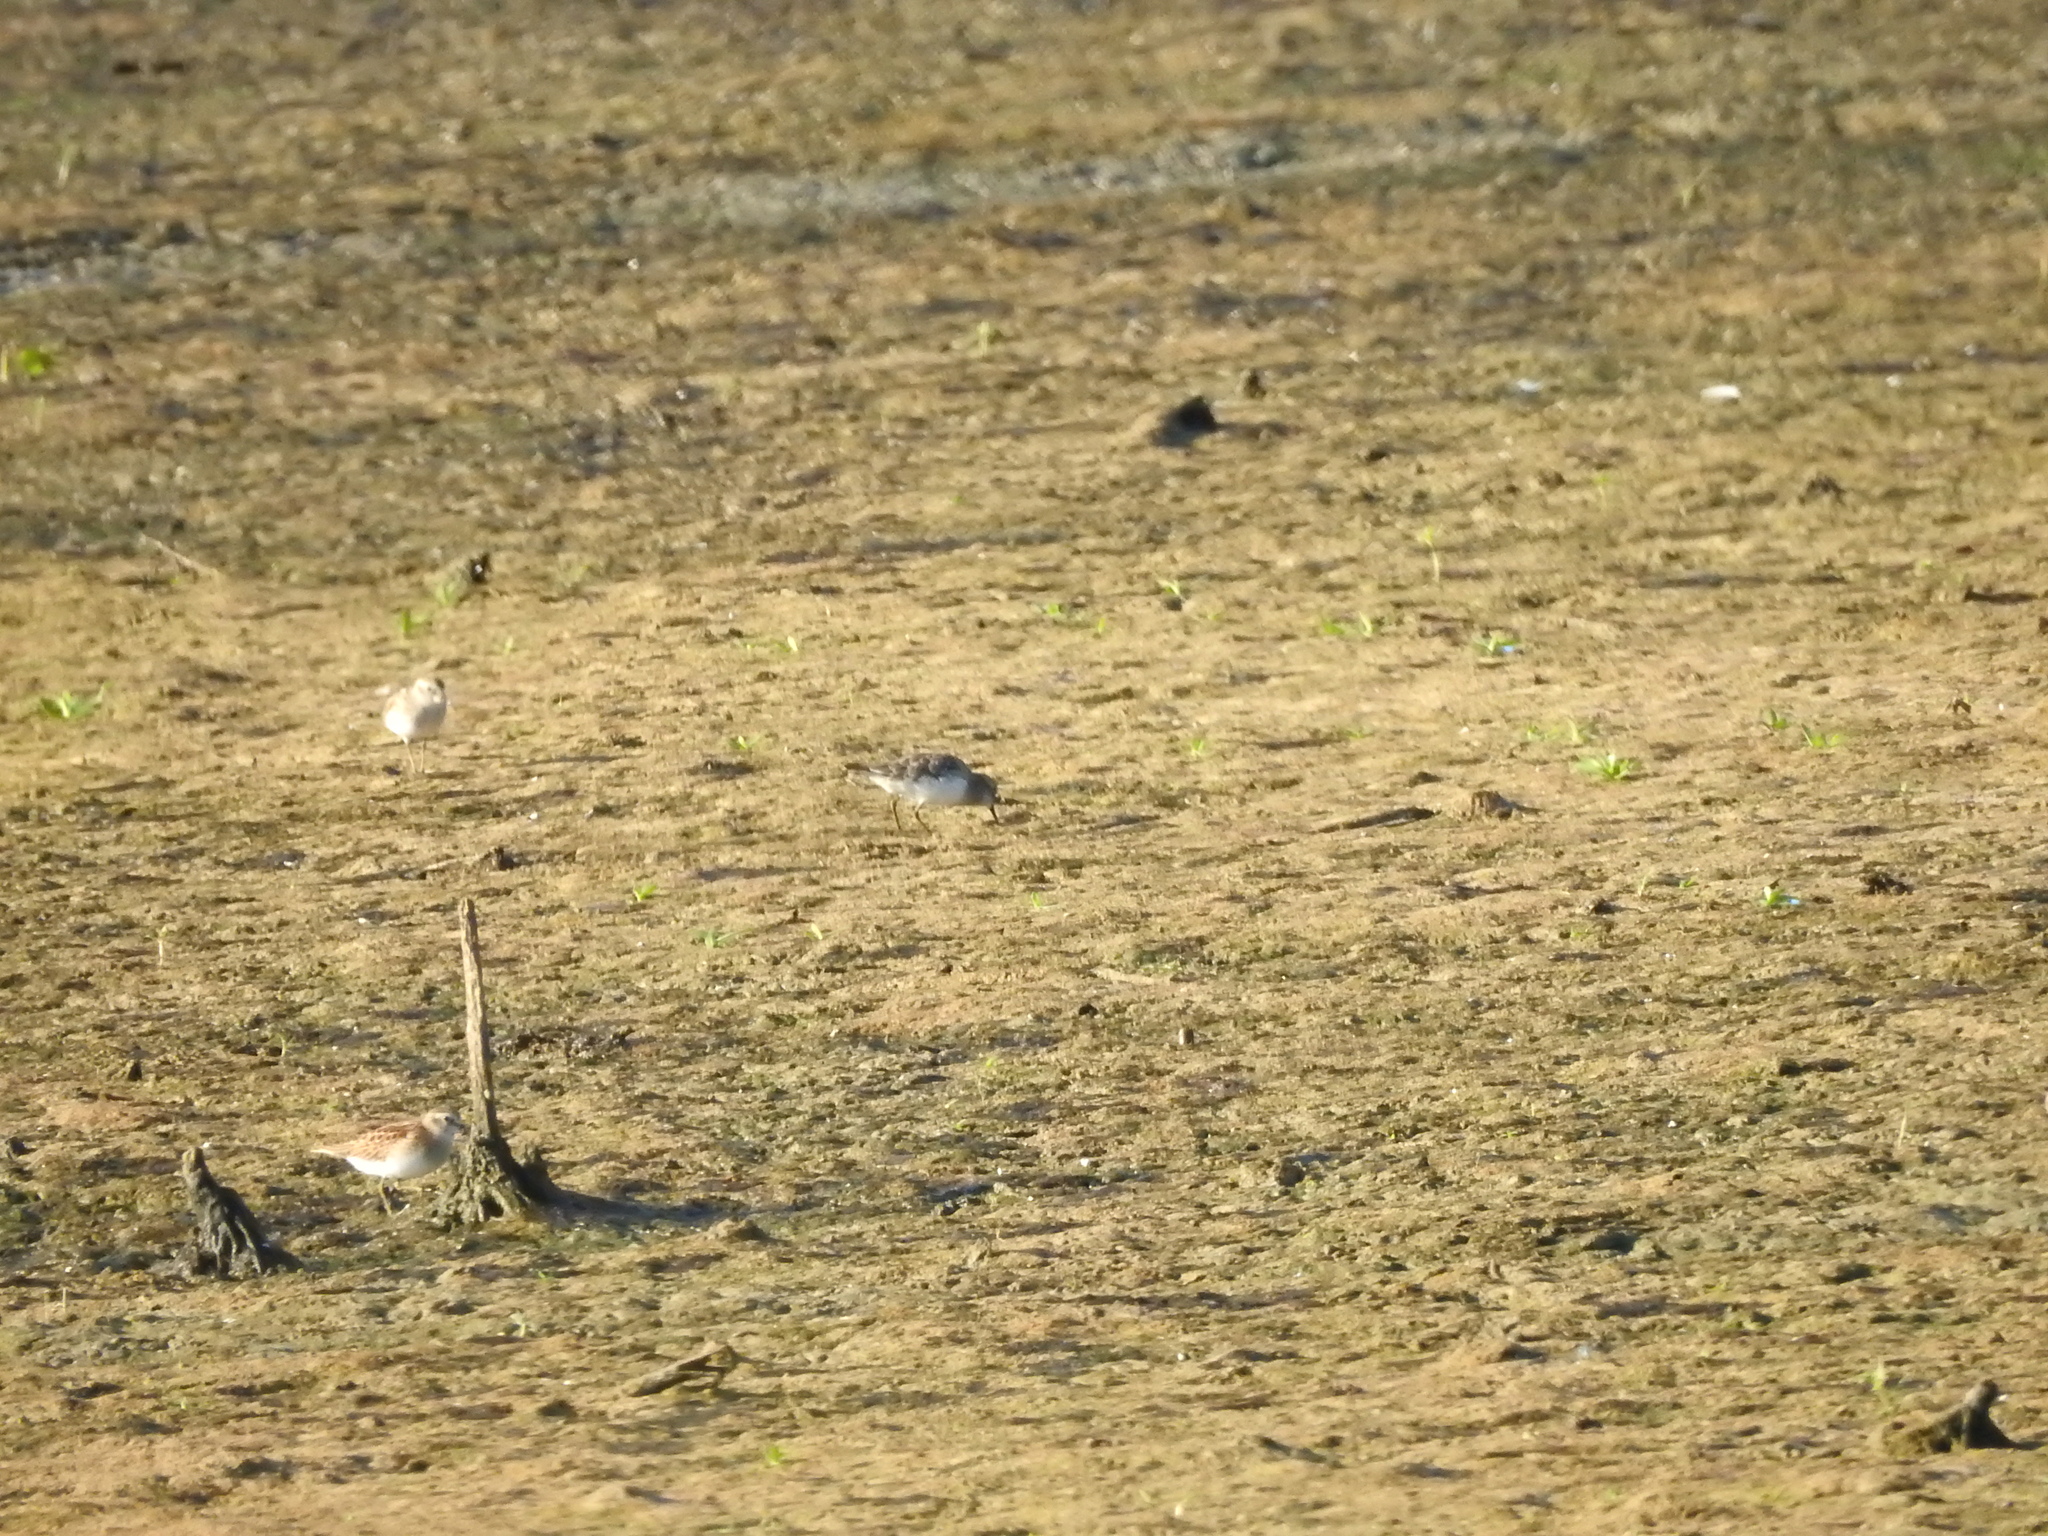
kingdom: Animalia
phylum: Chordata
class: Aves
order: Charadriiformes
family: Scolopacidae
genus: Calidris
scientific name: Calidris minutilla
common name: Least sandpiper
